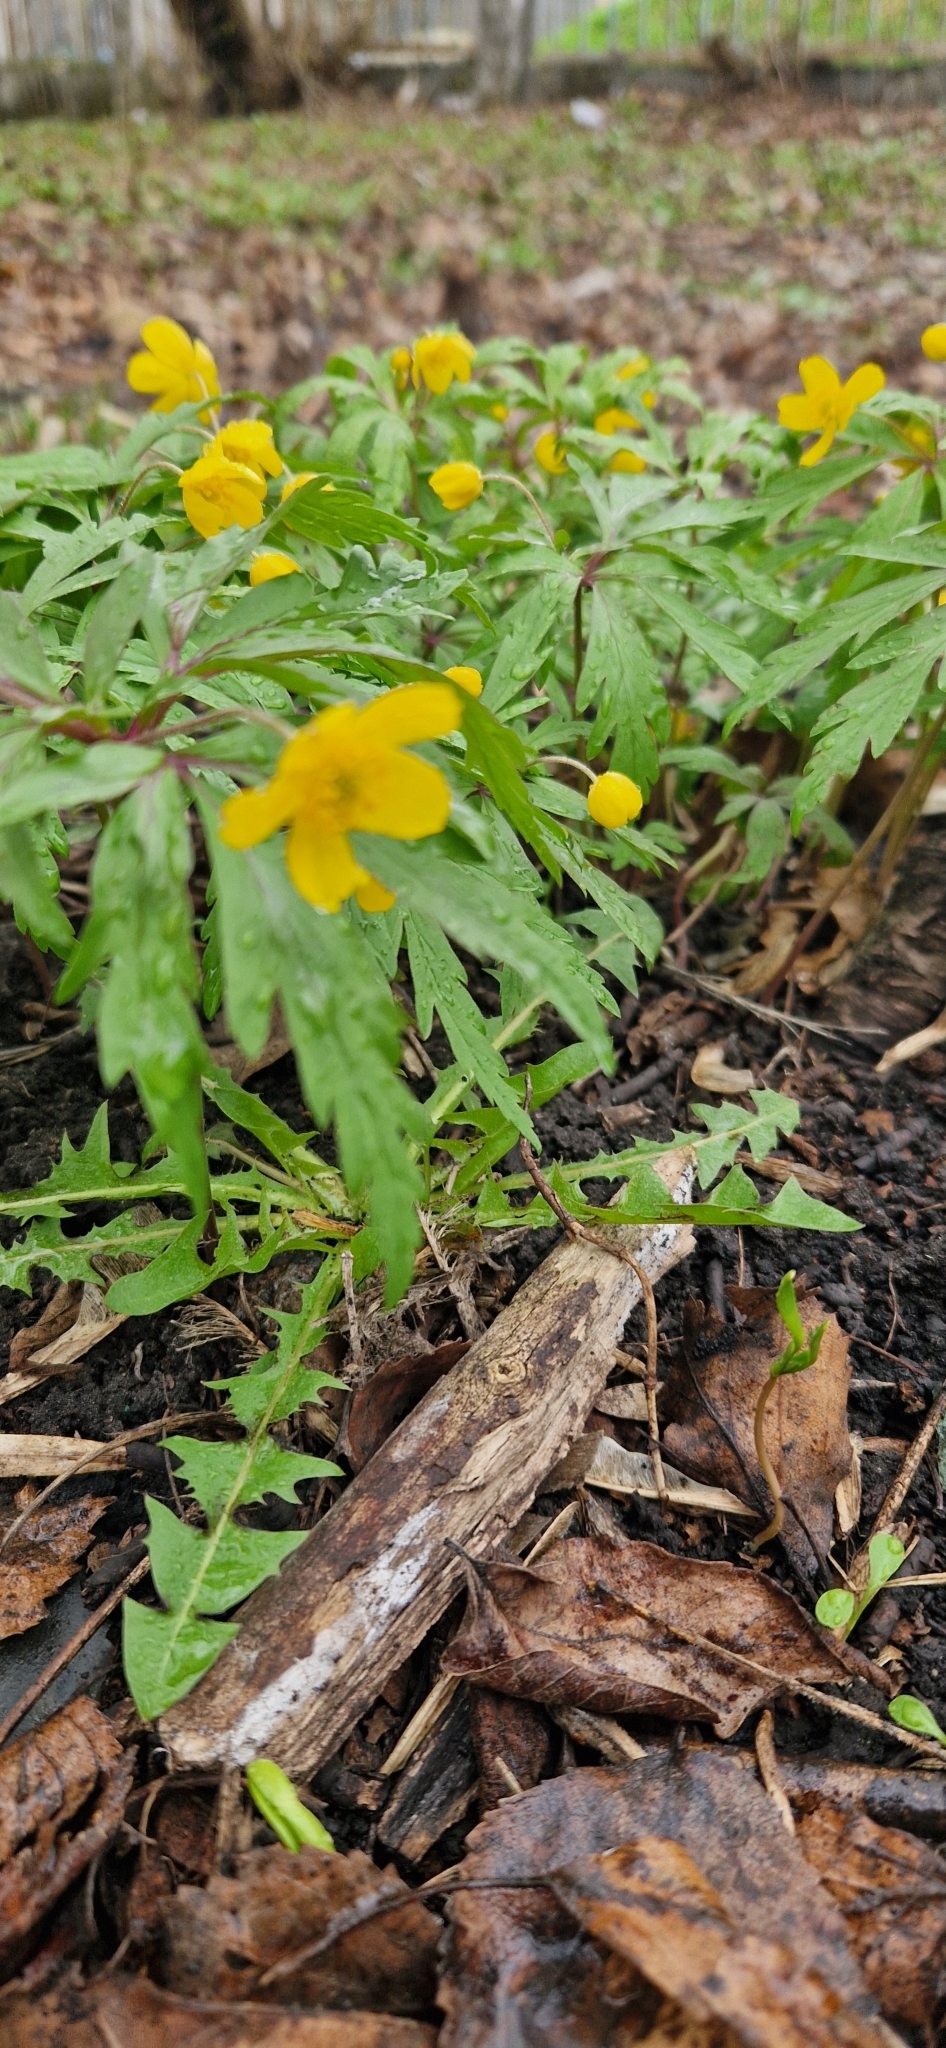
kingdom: Plantae
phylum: Tracheophyta
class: Magnoliopsida
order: Ranunculales
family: Ranunculaceae
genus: Anemone
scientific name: Anemone ranunculoides
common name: Yellow anemone
